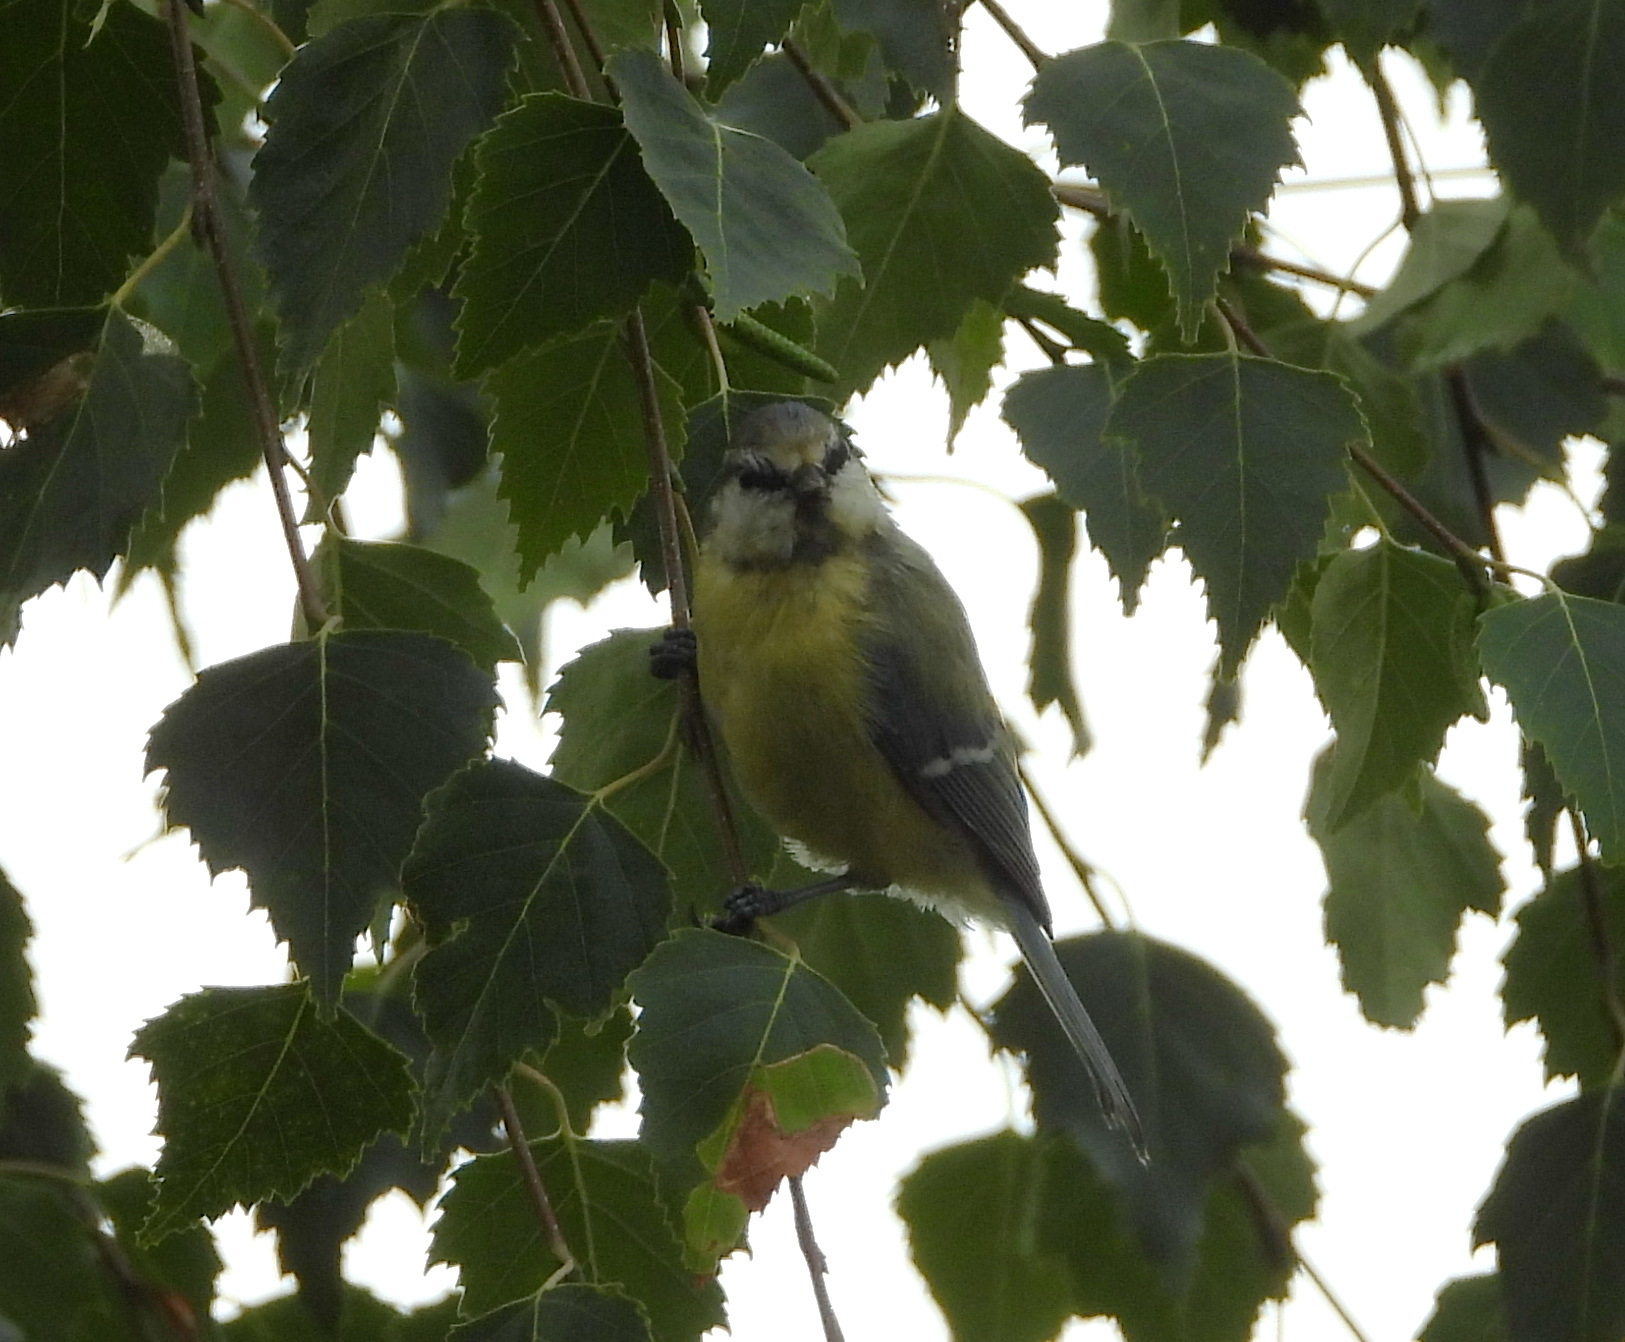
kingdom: Animalia
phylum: Chordata
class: Aves
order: Passeriformes
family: Paridae
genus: Cyanistes
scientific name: Cyanistes caeruleus
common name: Eurasian blue tit
